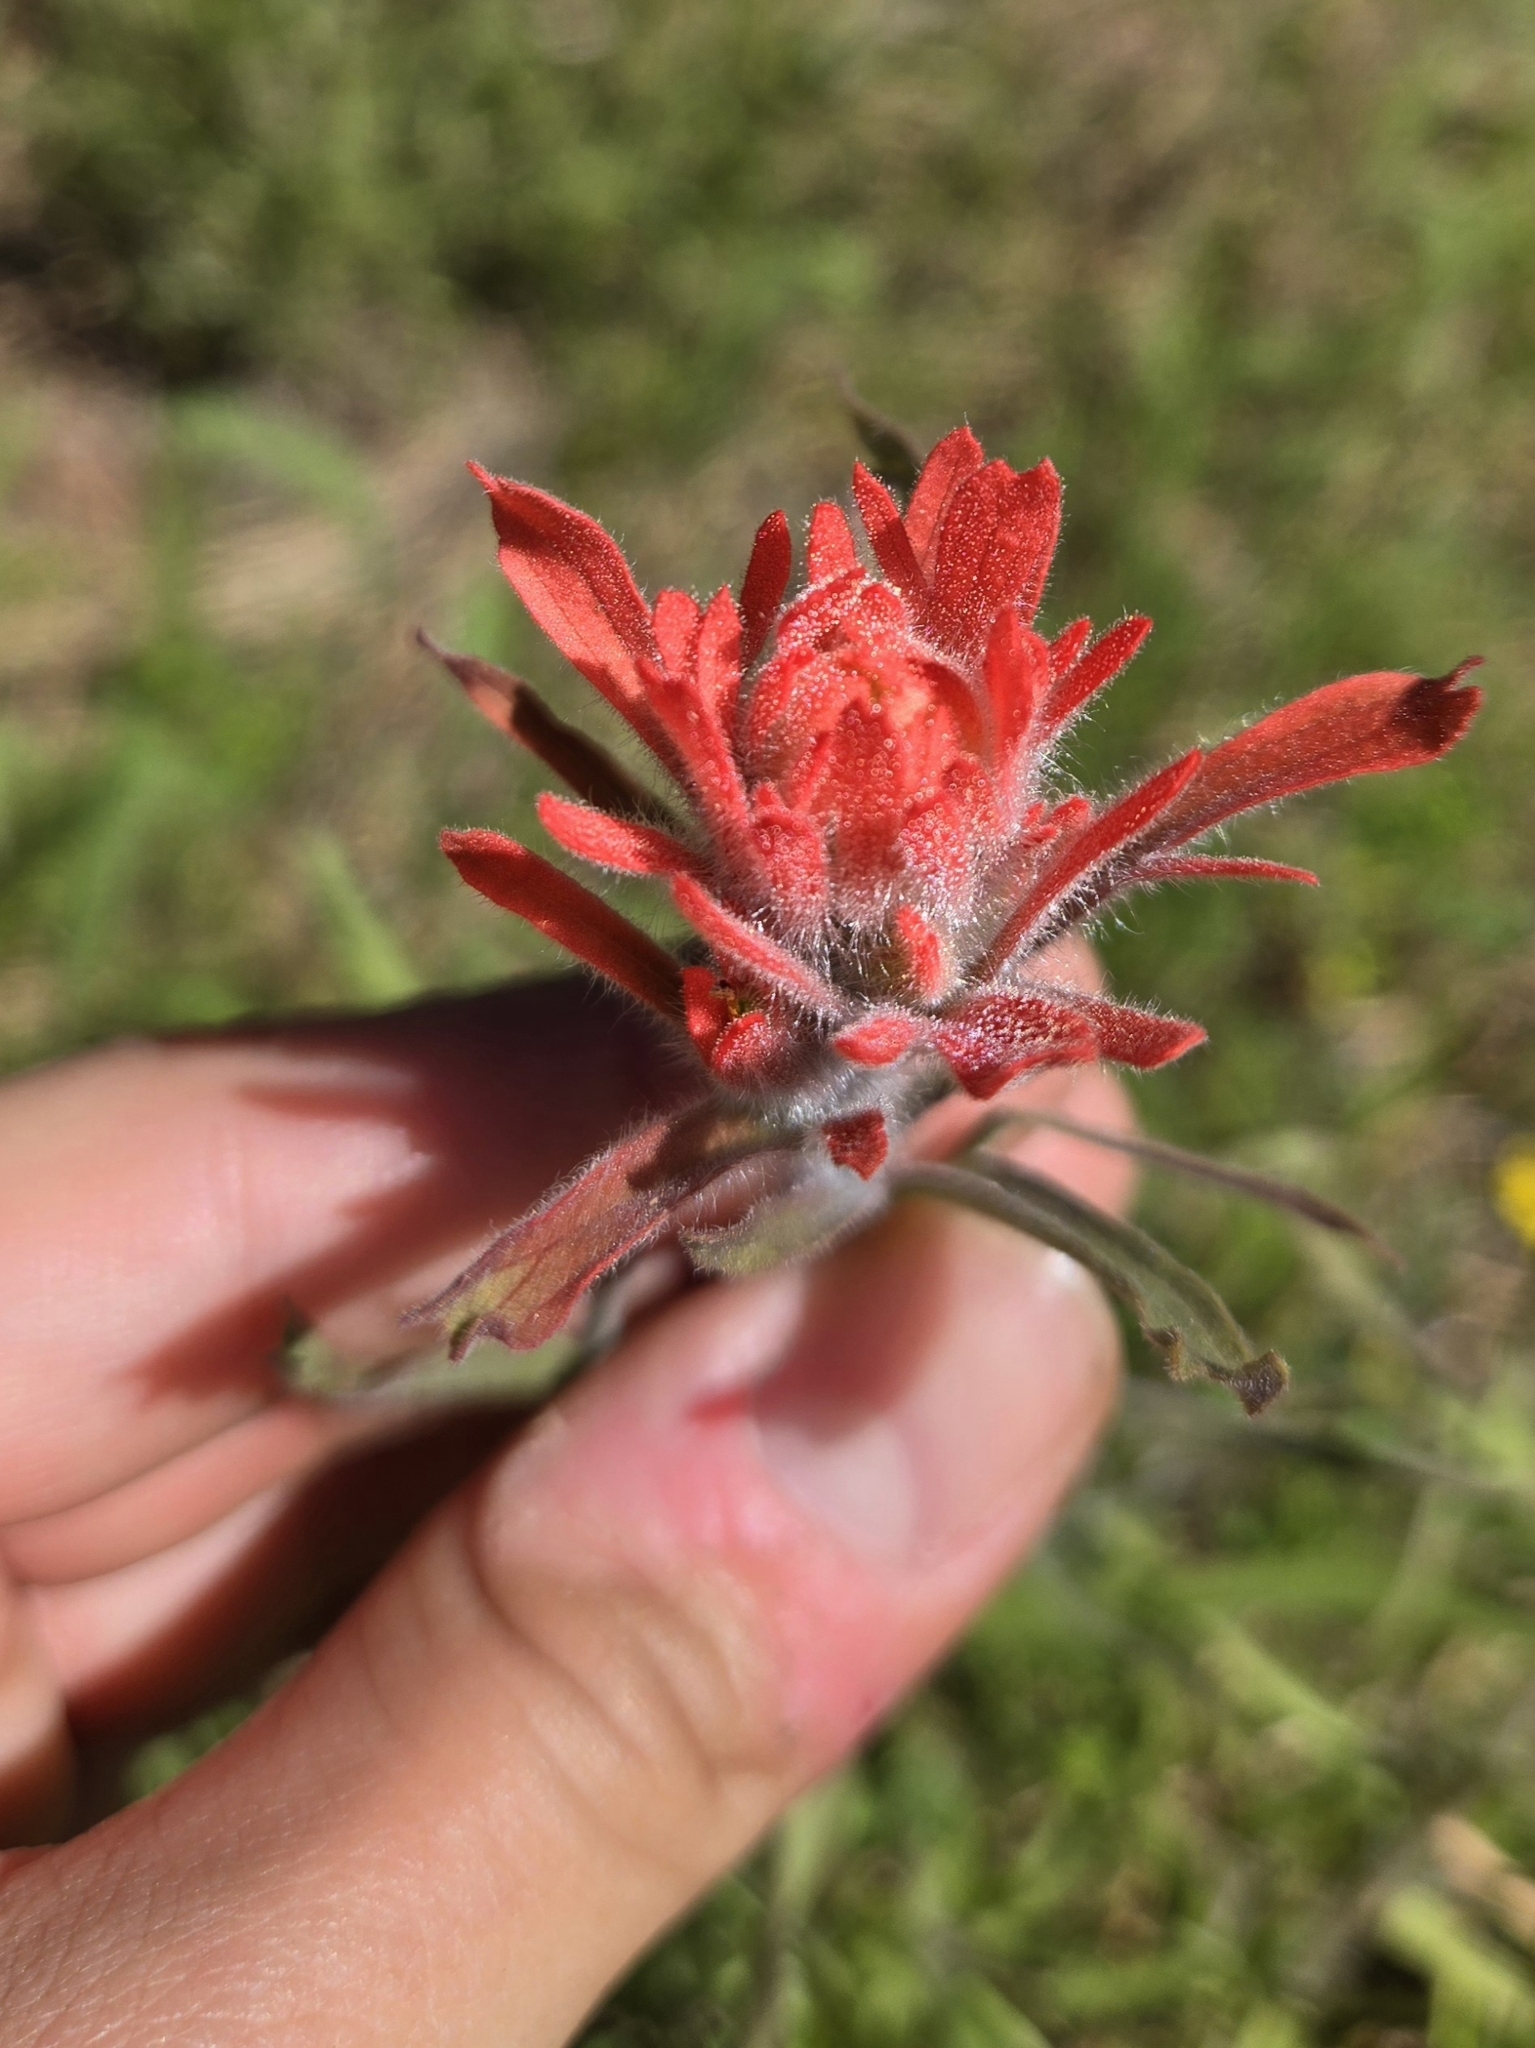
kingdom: Plantae
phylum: Tracheophyta
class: Magnoliopsida
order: Lamiales
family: Orobanchaceae
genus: Castilleja
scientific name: Castilleja affinis
